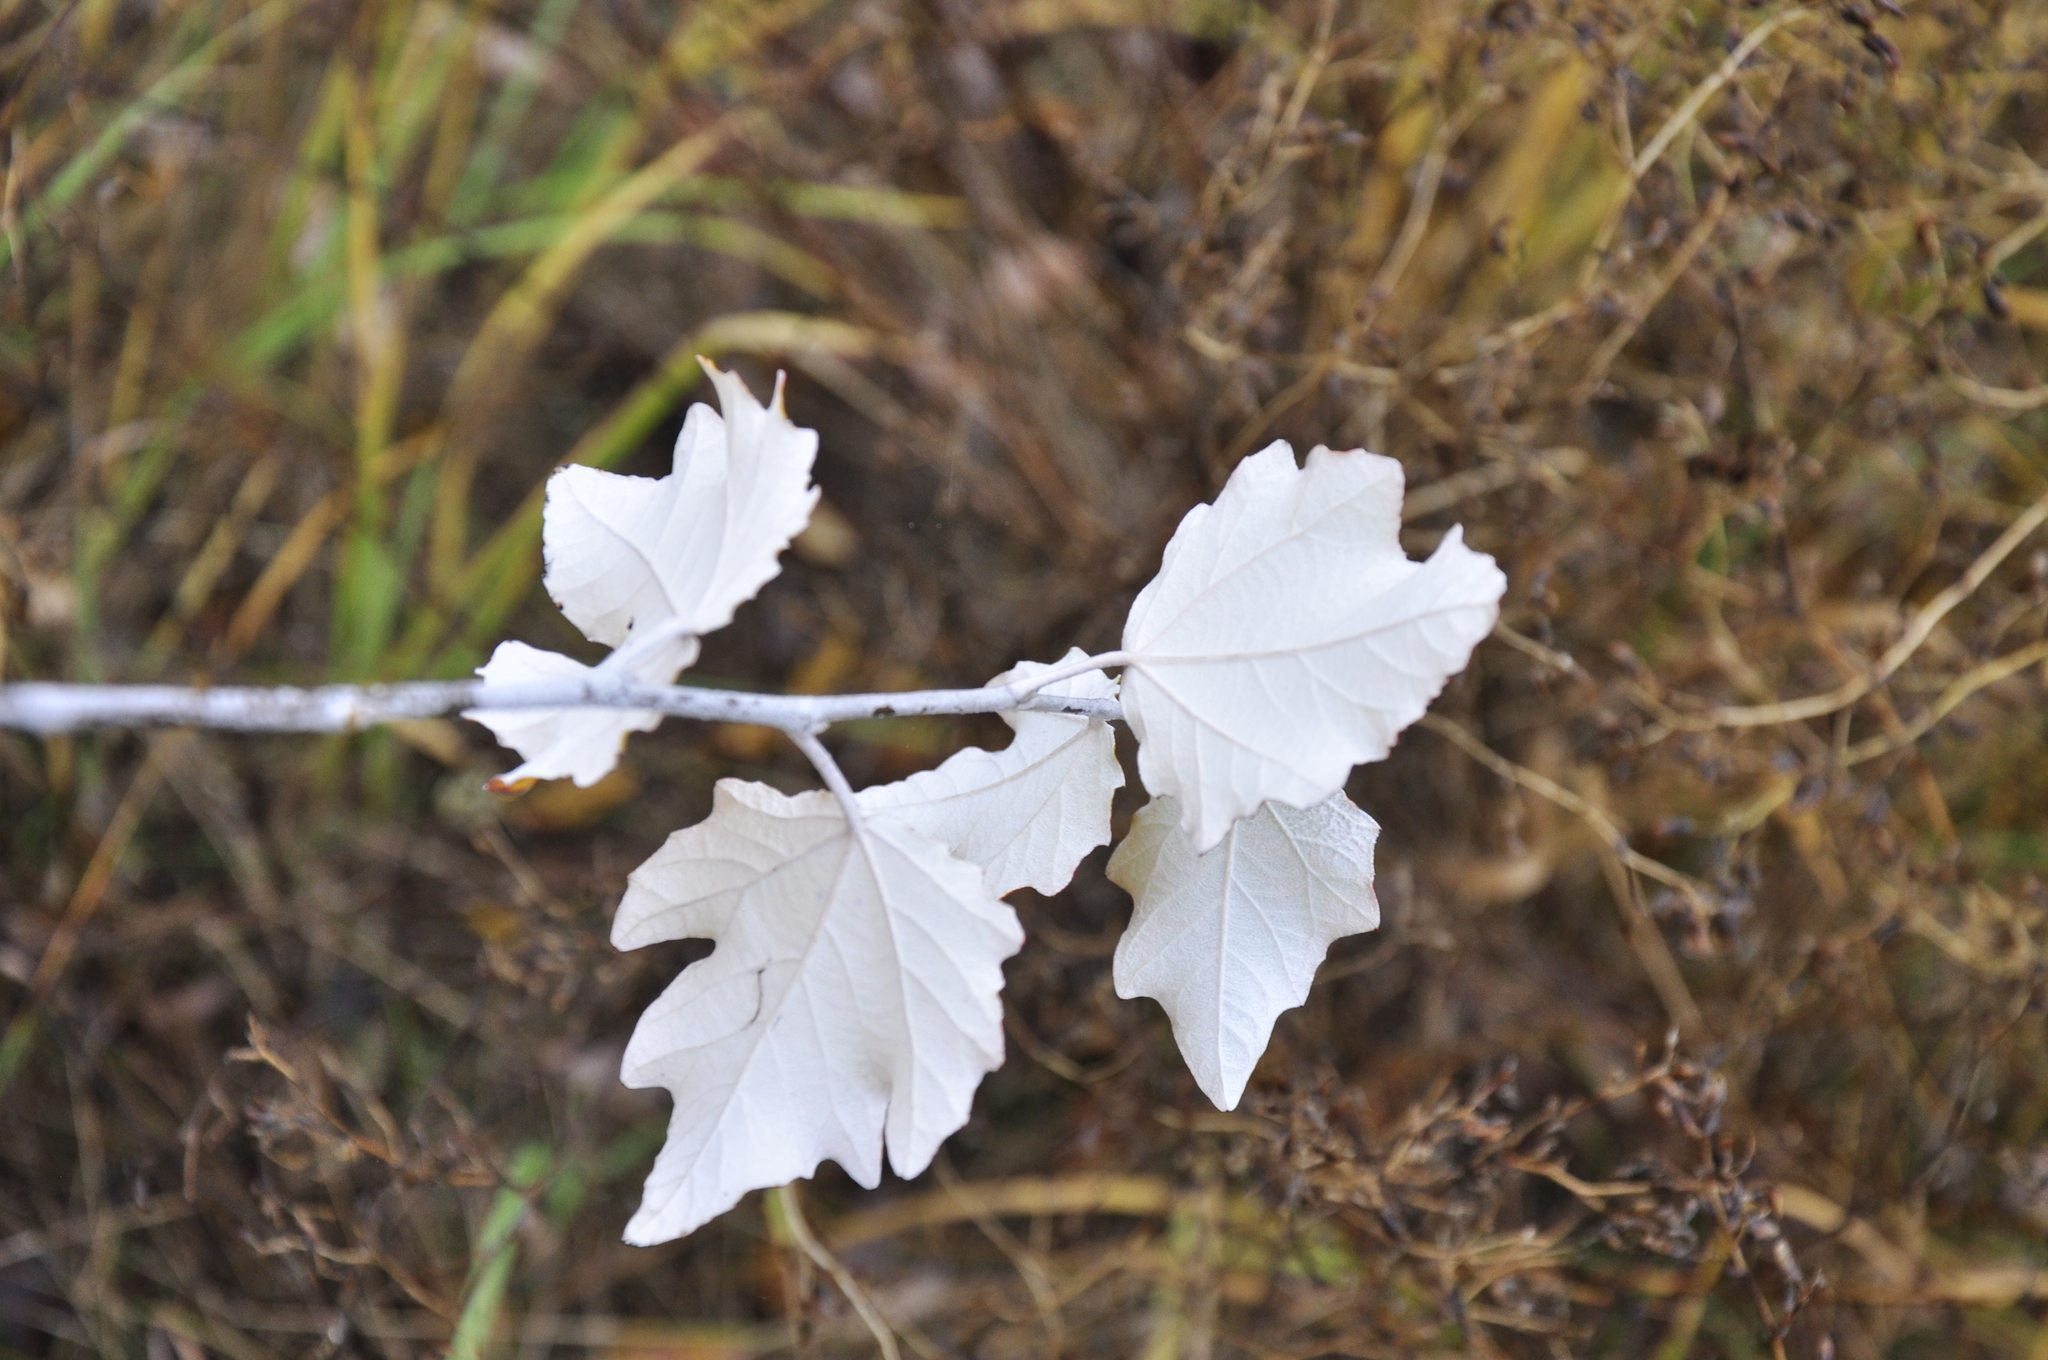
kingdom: Plantae
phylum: Tracheophyta
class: Magnoliopsida
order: Malpighiales
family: Salicaceae
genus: Populus
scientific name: Populus alba
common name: White poplar
